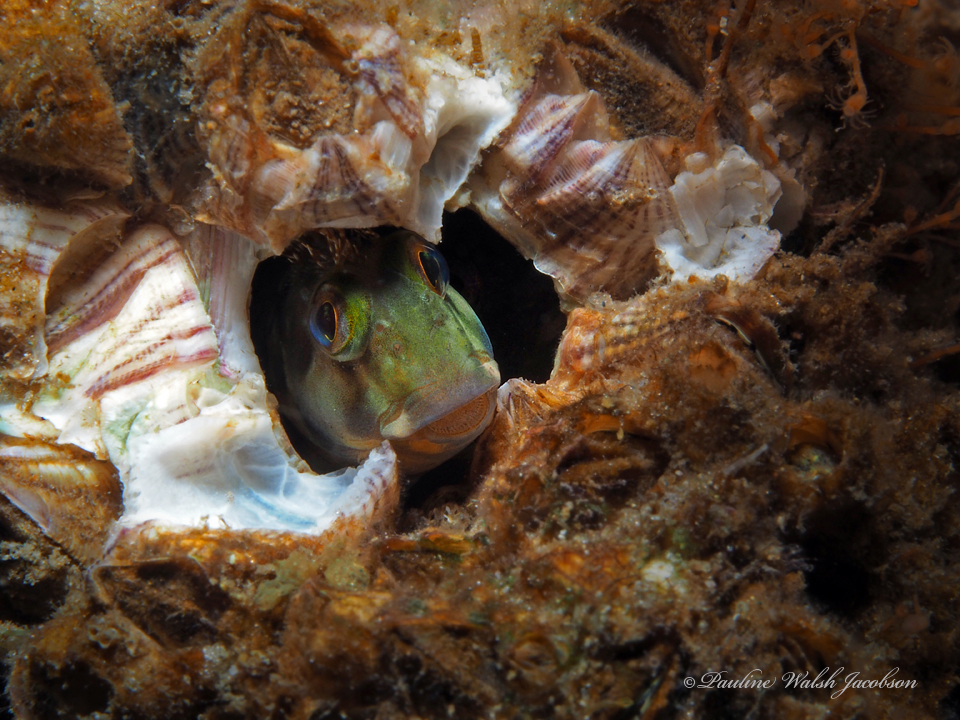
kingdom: Animalia
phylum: Chordata
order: Perciformes
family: Blenniidae
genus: Scartella
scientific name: Scartella cristata
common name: Molly miller
